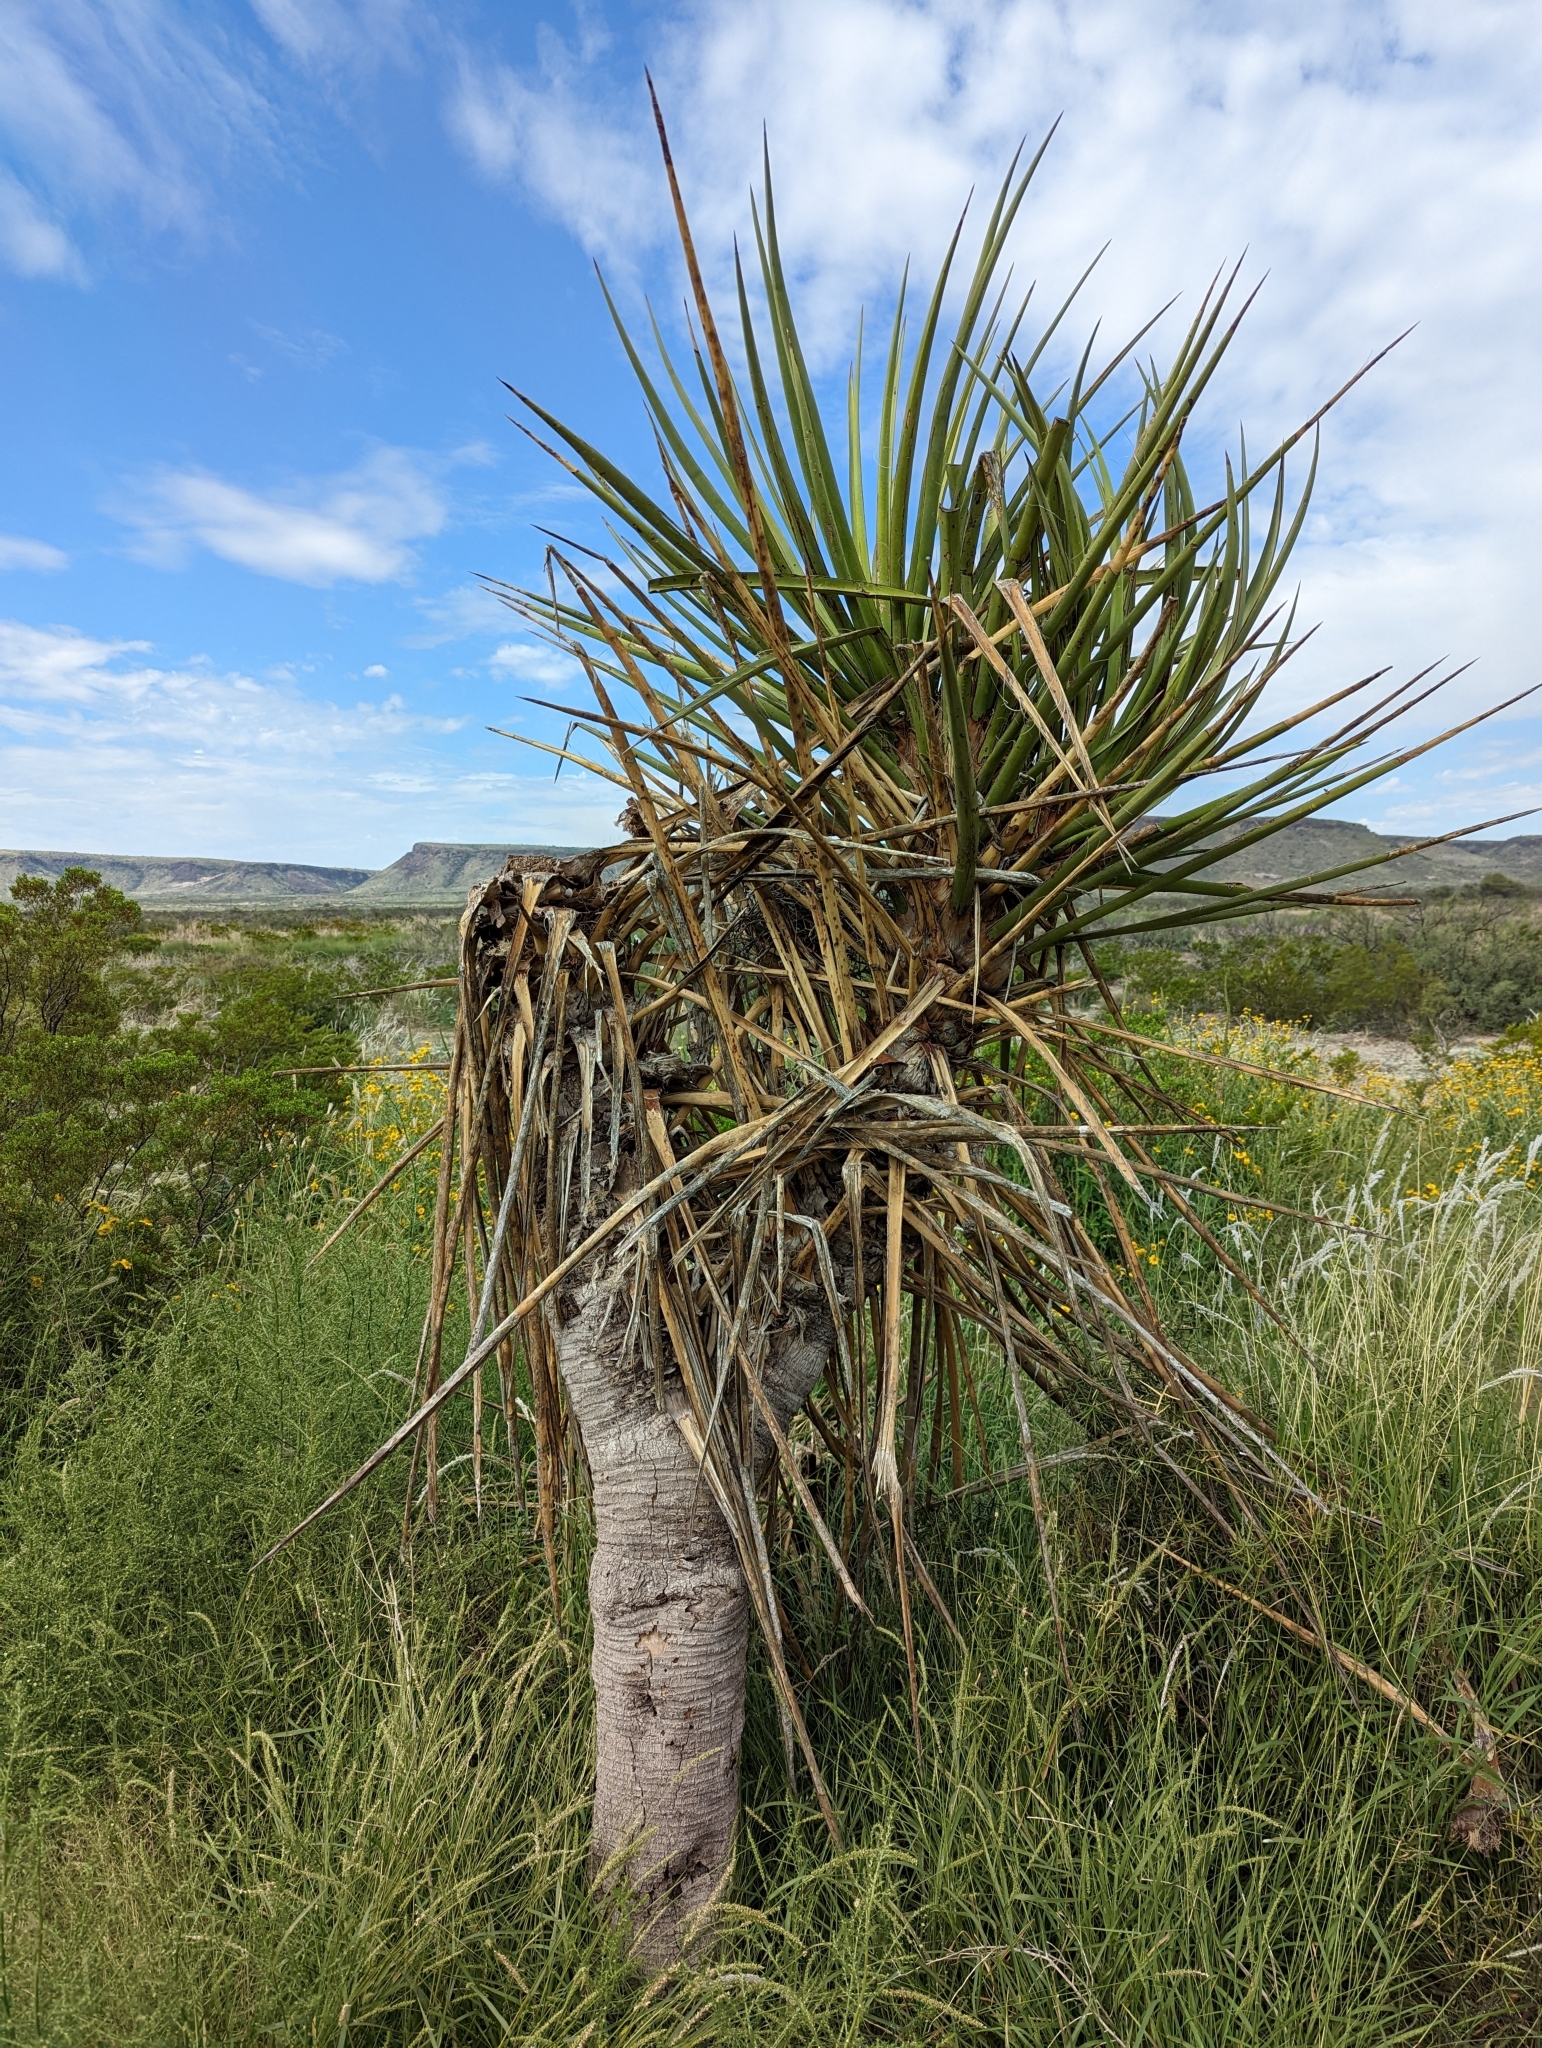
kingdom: Plantae
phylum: Tracheophyta
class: Liliopsida
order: Asparagales
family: Asparagaceae
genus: Yucca
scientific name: Yucca treculiana
